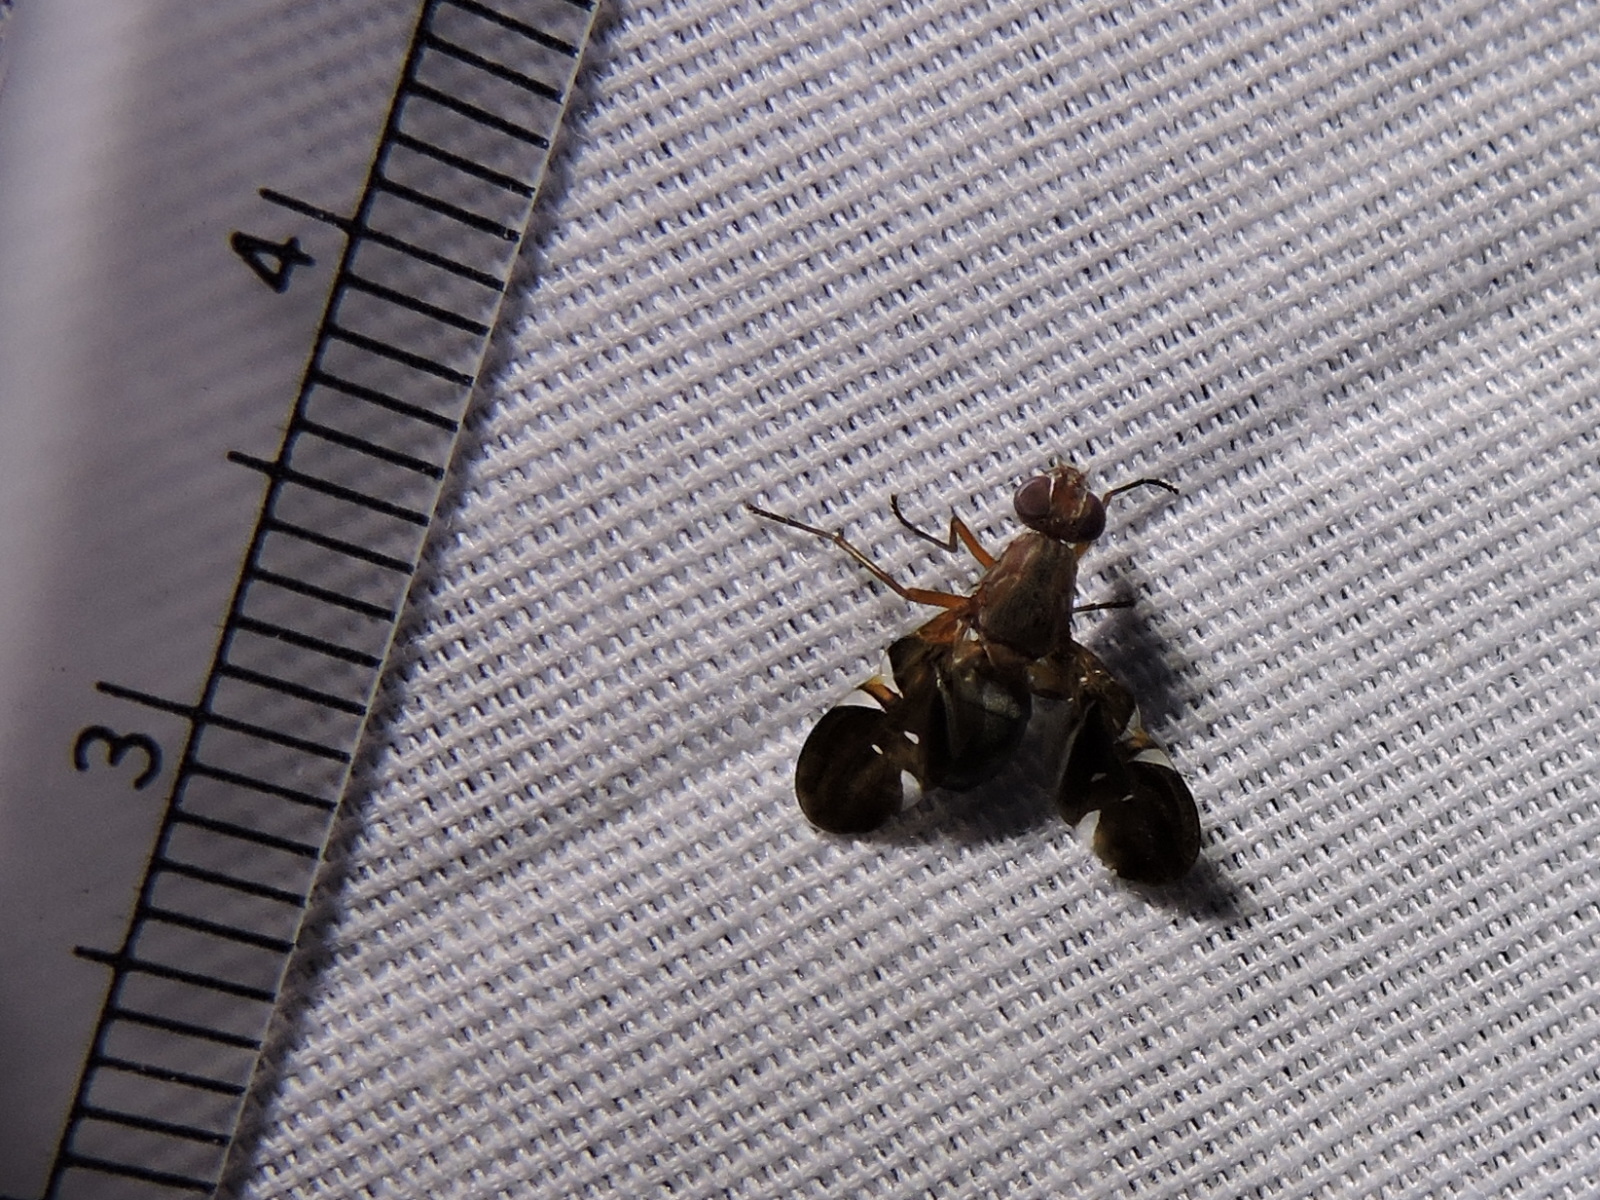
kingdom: Animalia
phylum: Arthropoda
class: Insecta
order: Diptera
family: Ulidiidae
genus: Delphinia
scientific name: Delphinia picta
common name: Common picture-winged fly
